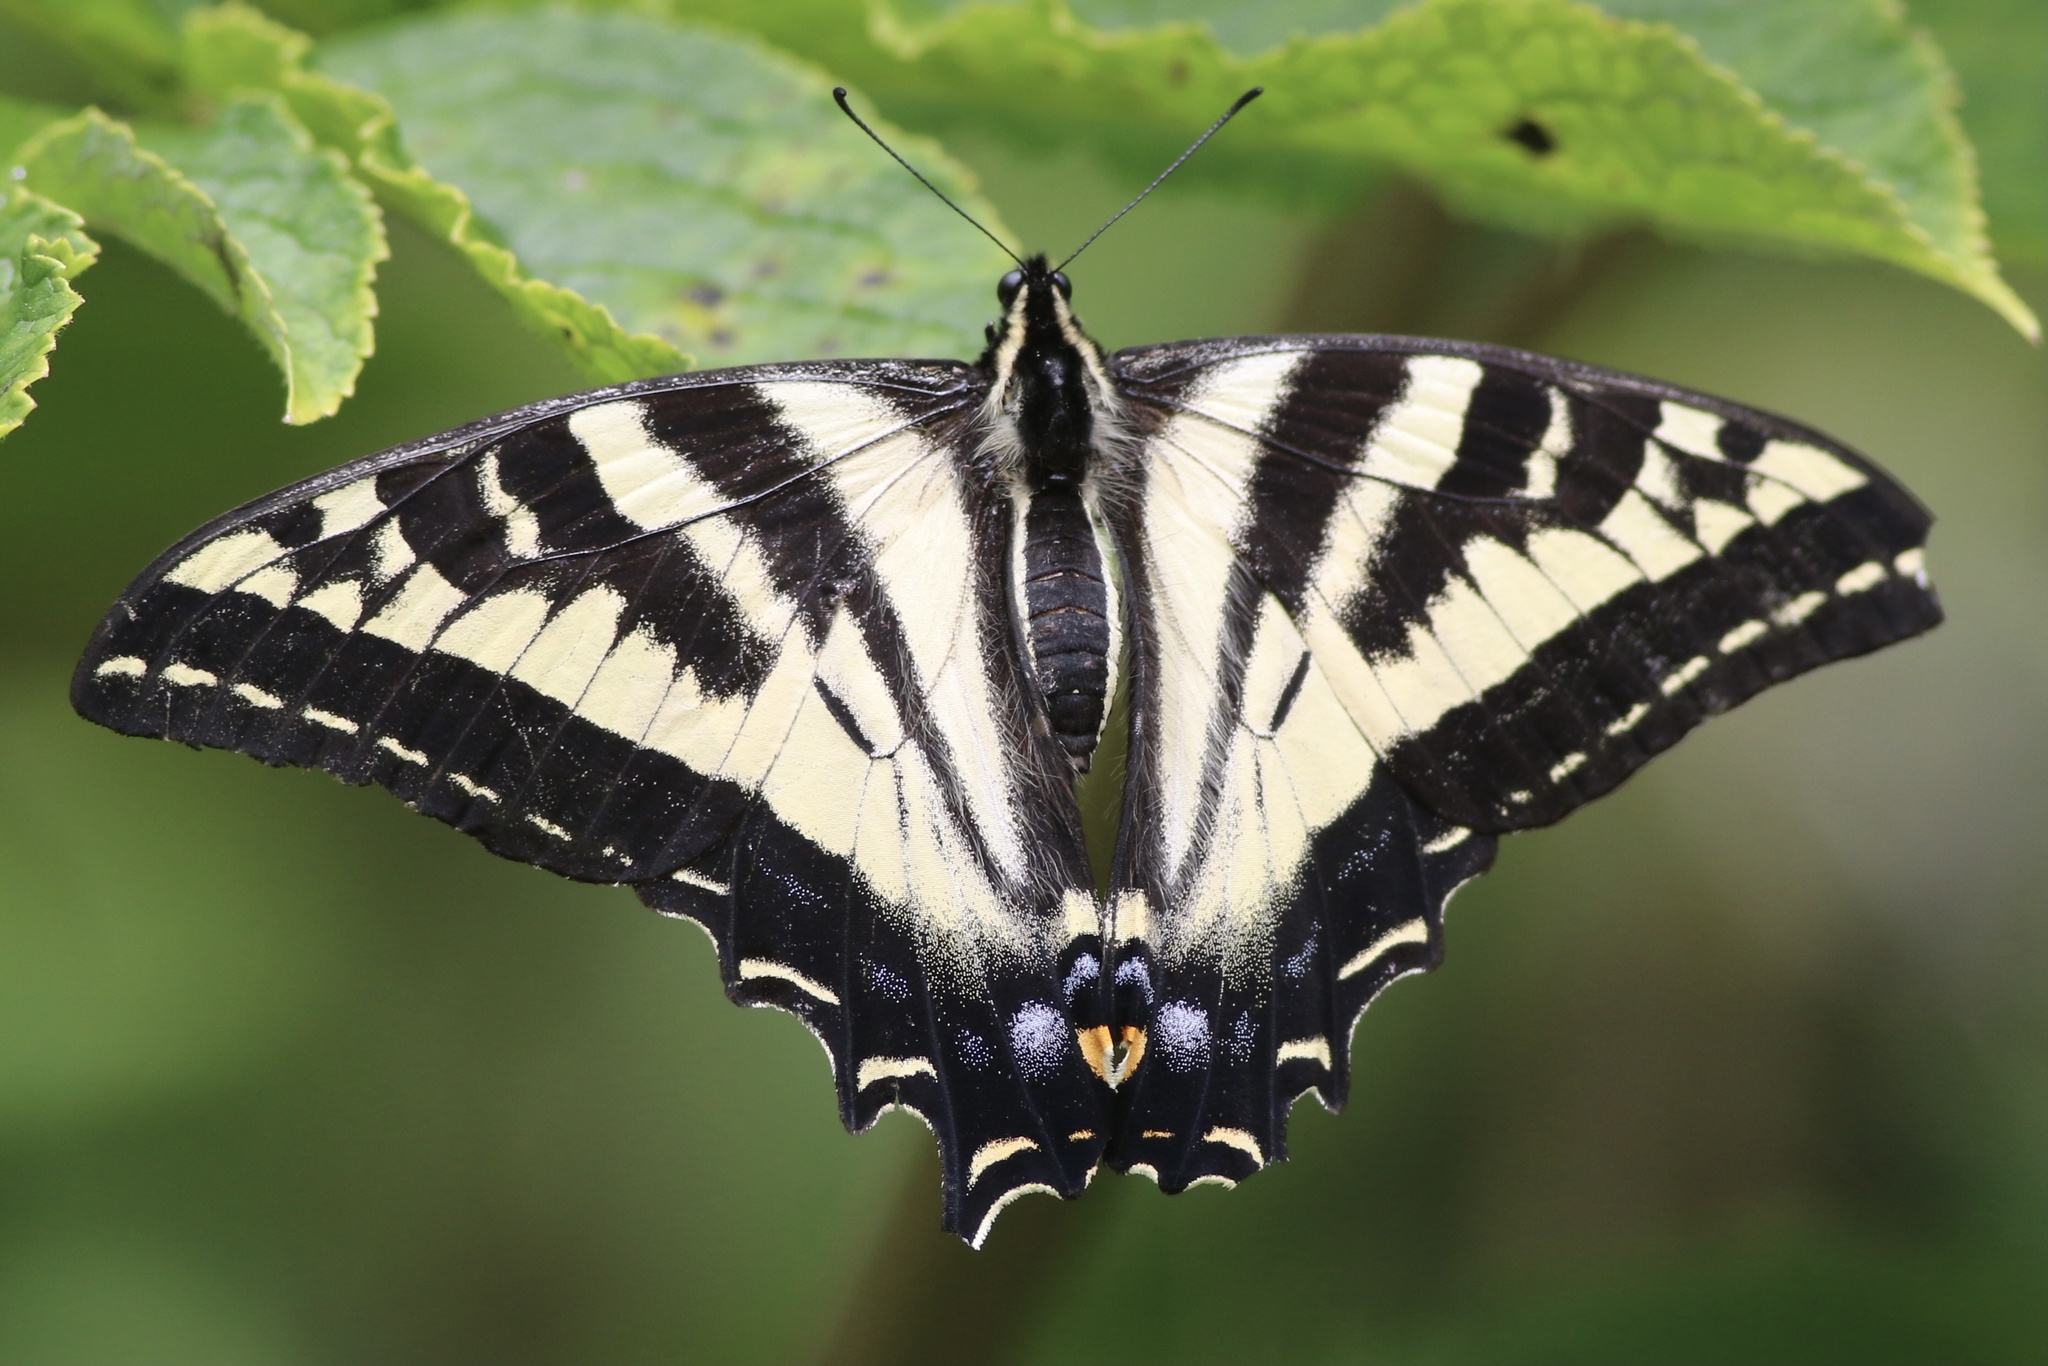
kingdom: Animalia
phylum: Arthropoda
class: Insecta
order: Lepidoptera
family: Papilionidae
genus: Papilio
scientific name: Papilio rutulus
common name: Western tiger swallowtail
